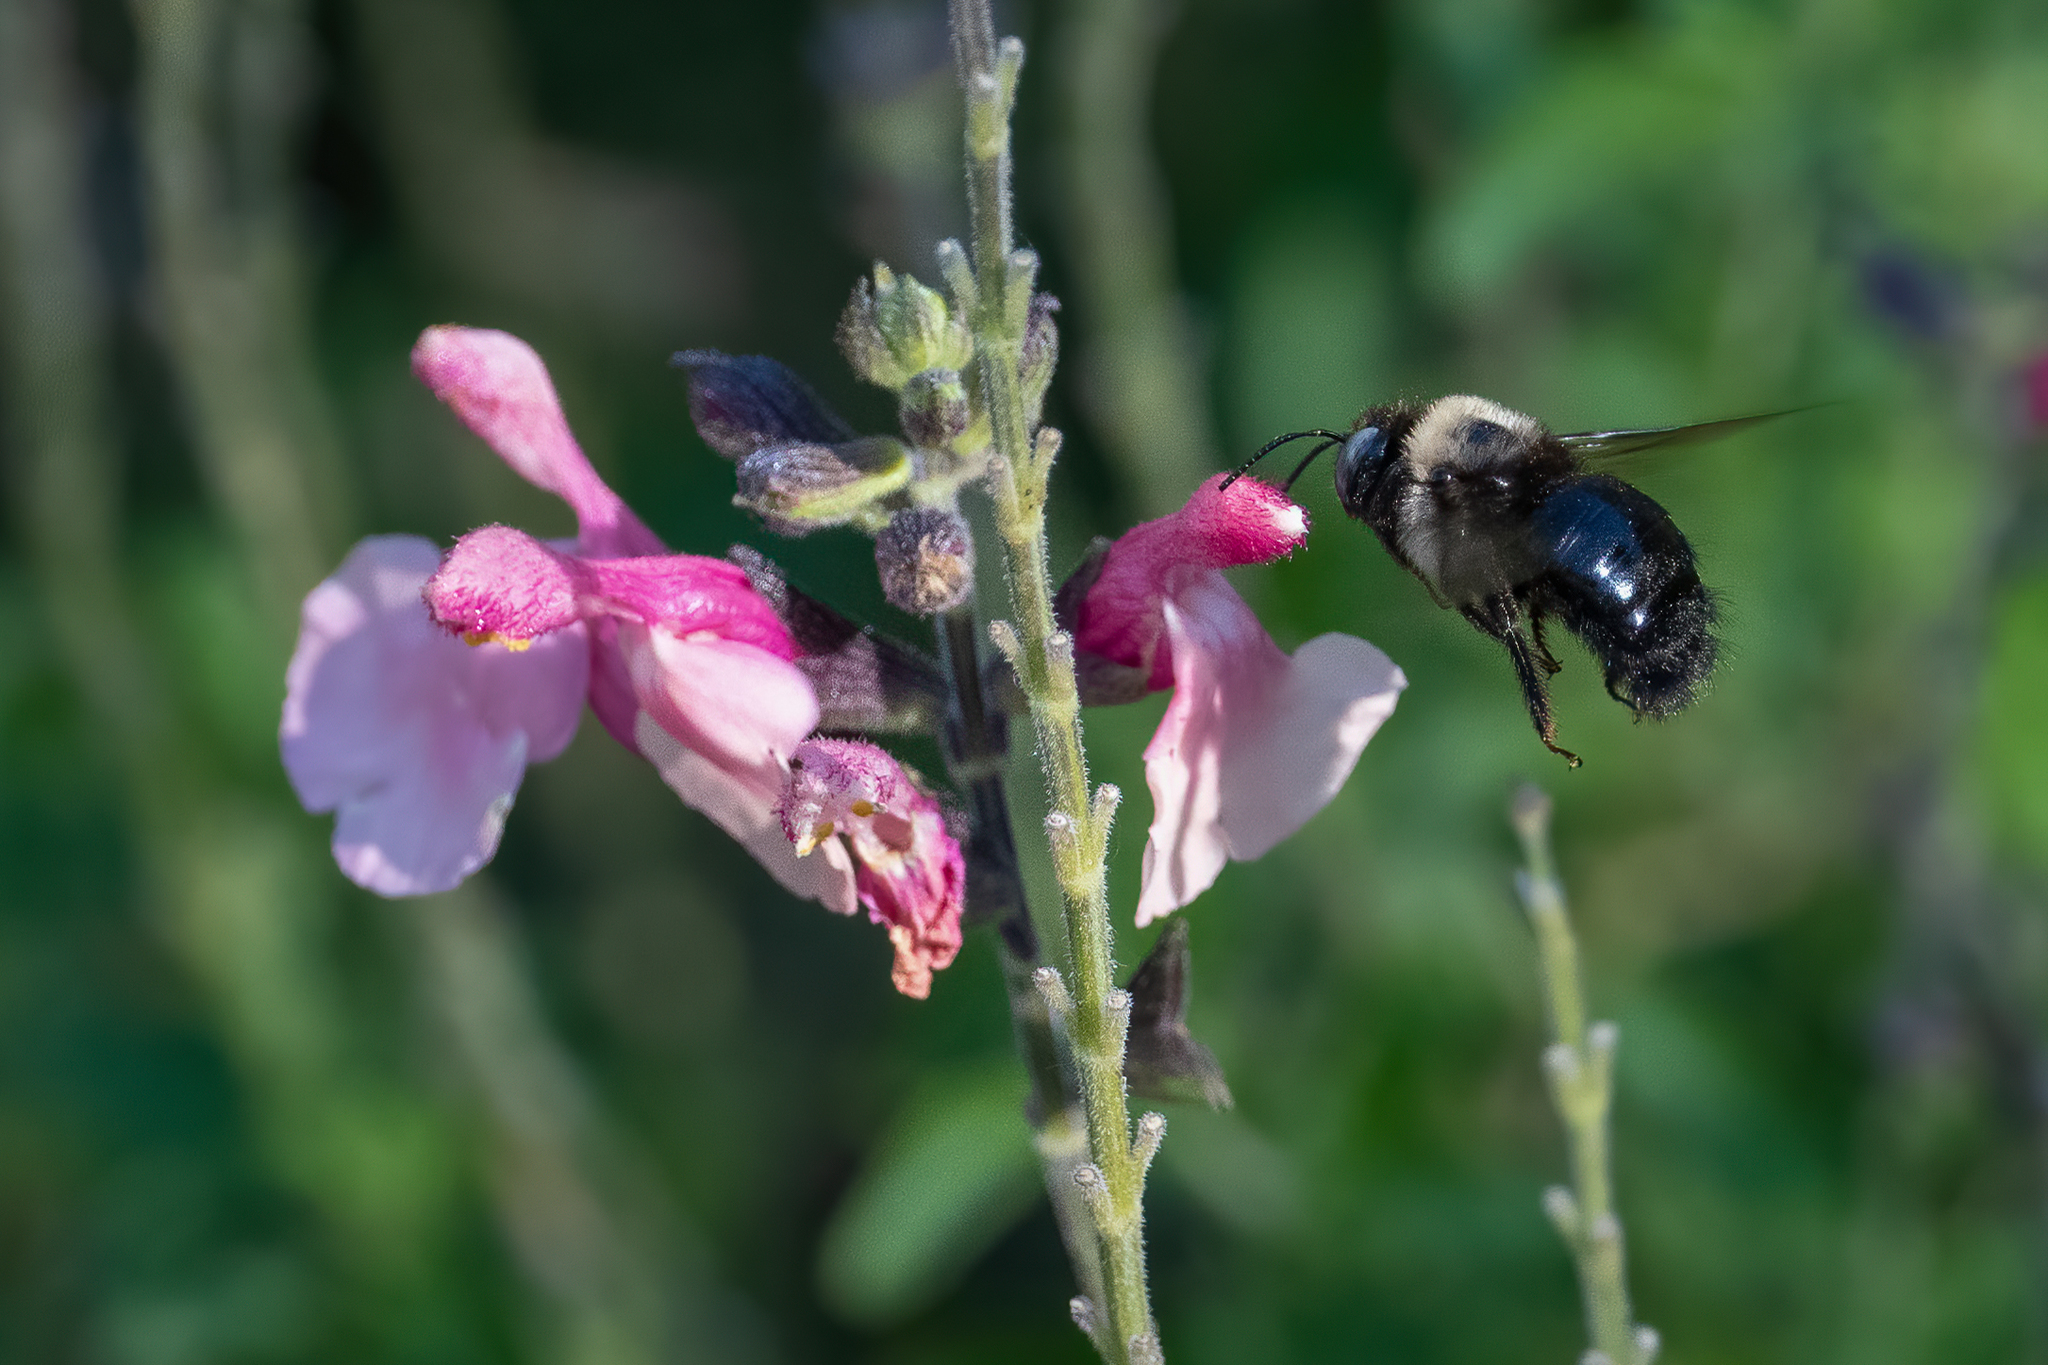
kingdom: Animalia
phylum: Arthropoda
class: Insecta
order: Hymenoptera
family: Apidae
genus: Xylocopa
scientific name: Xylocopa tabaniformis
